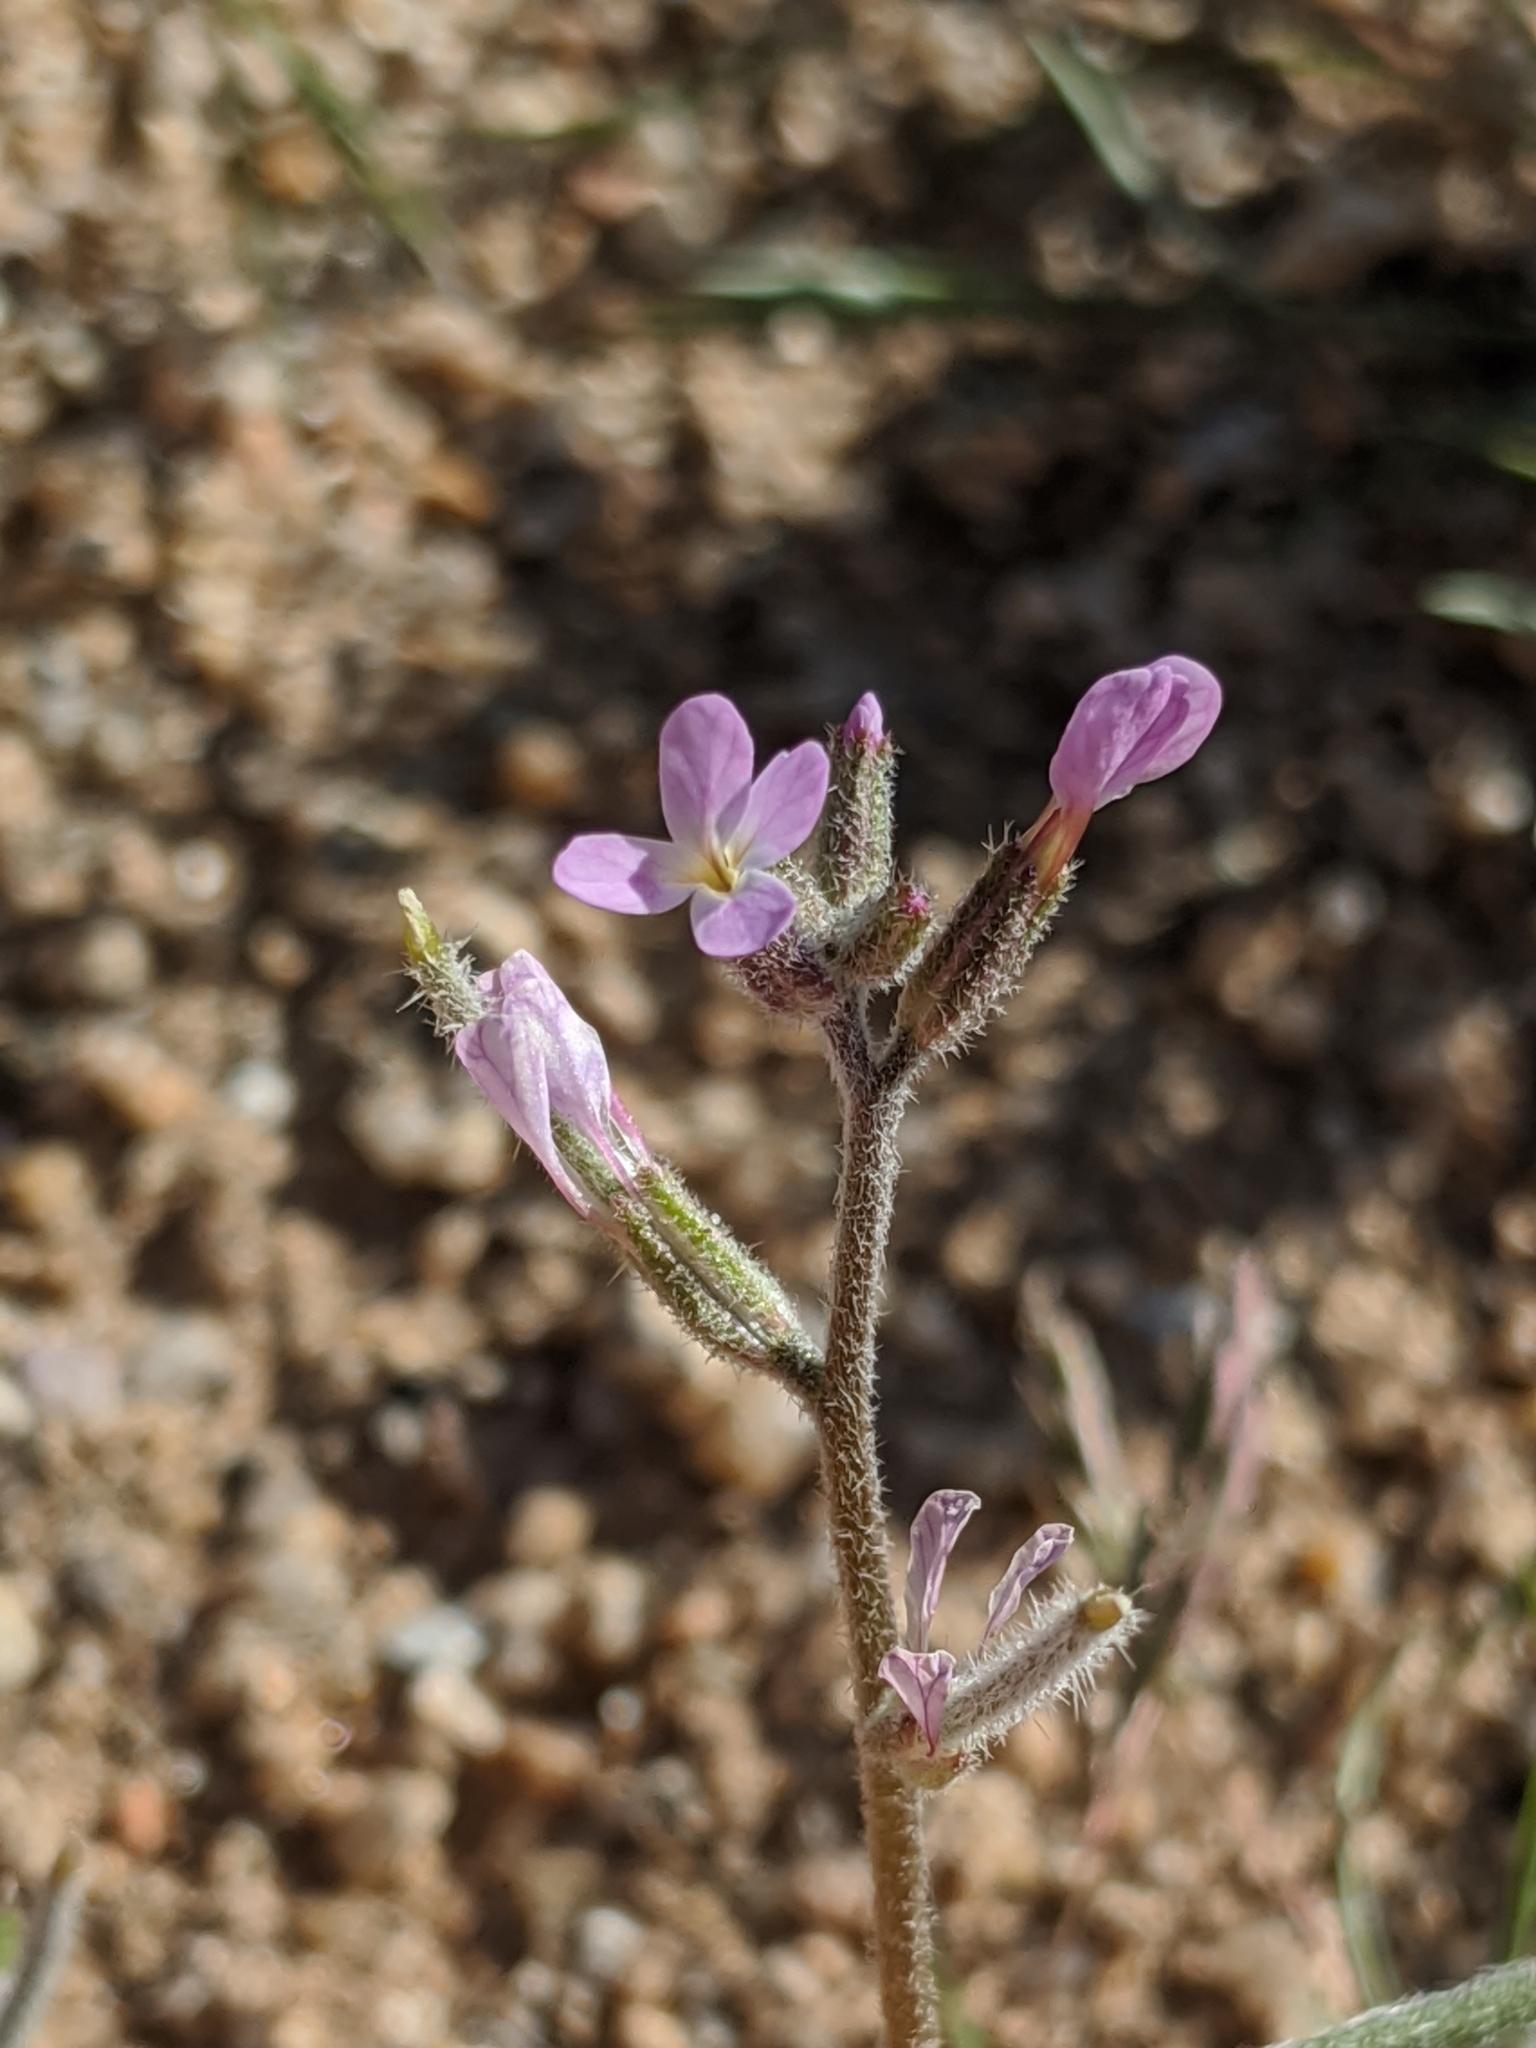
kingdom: Plantae
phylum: Tracheophyta
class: Magnoliopsida
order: Brassicales
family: Brassicaceae
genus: Strigosella
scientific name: Strigosella africana
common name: African mustard
